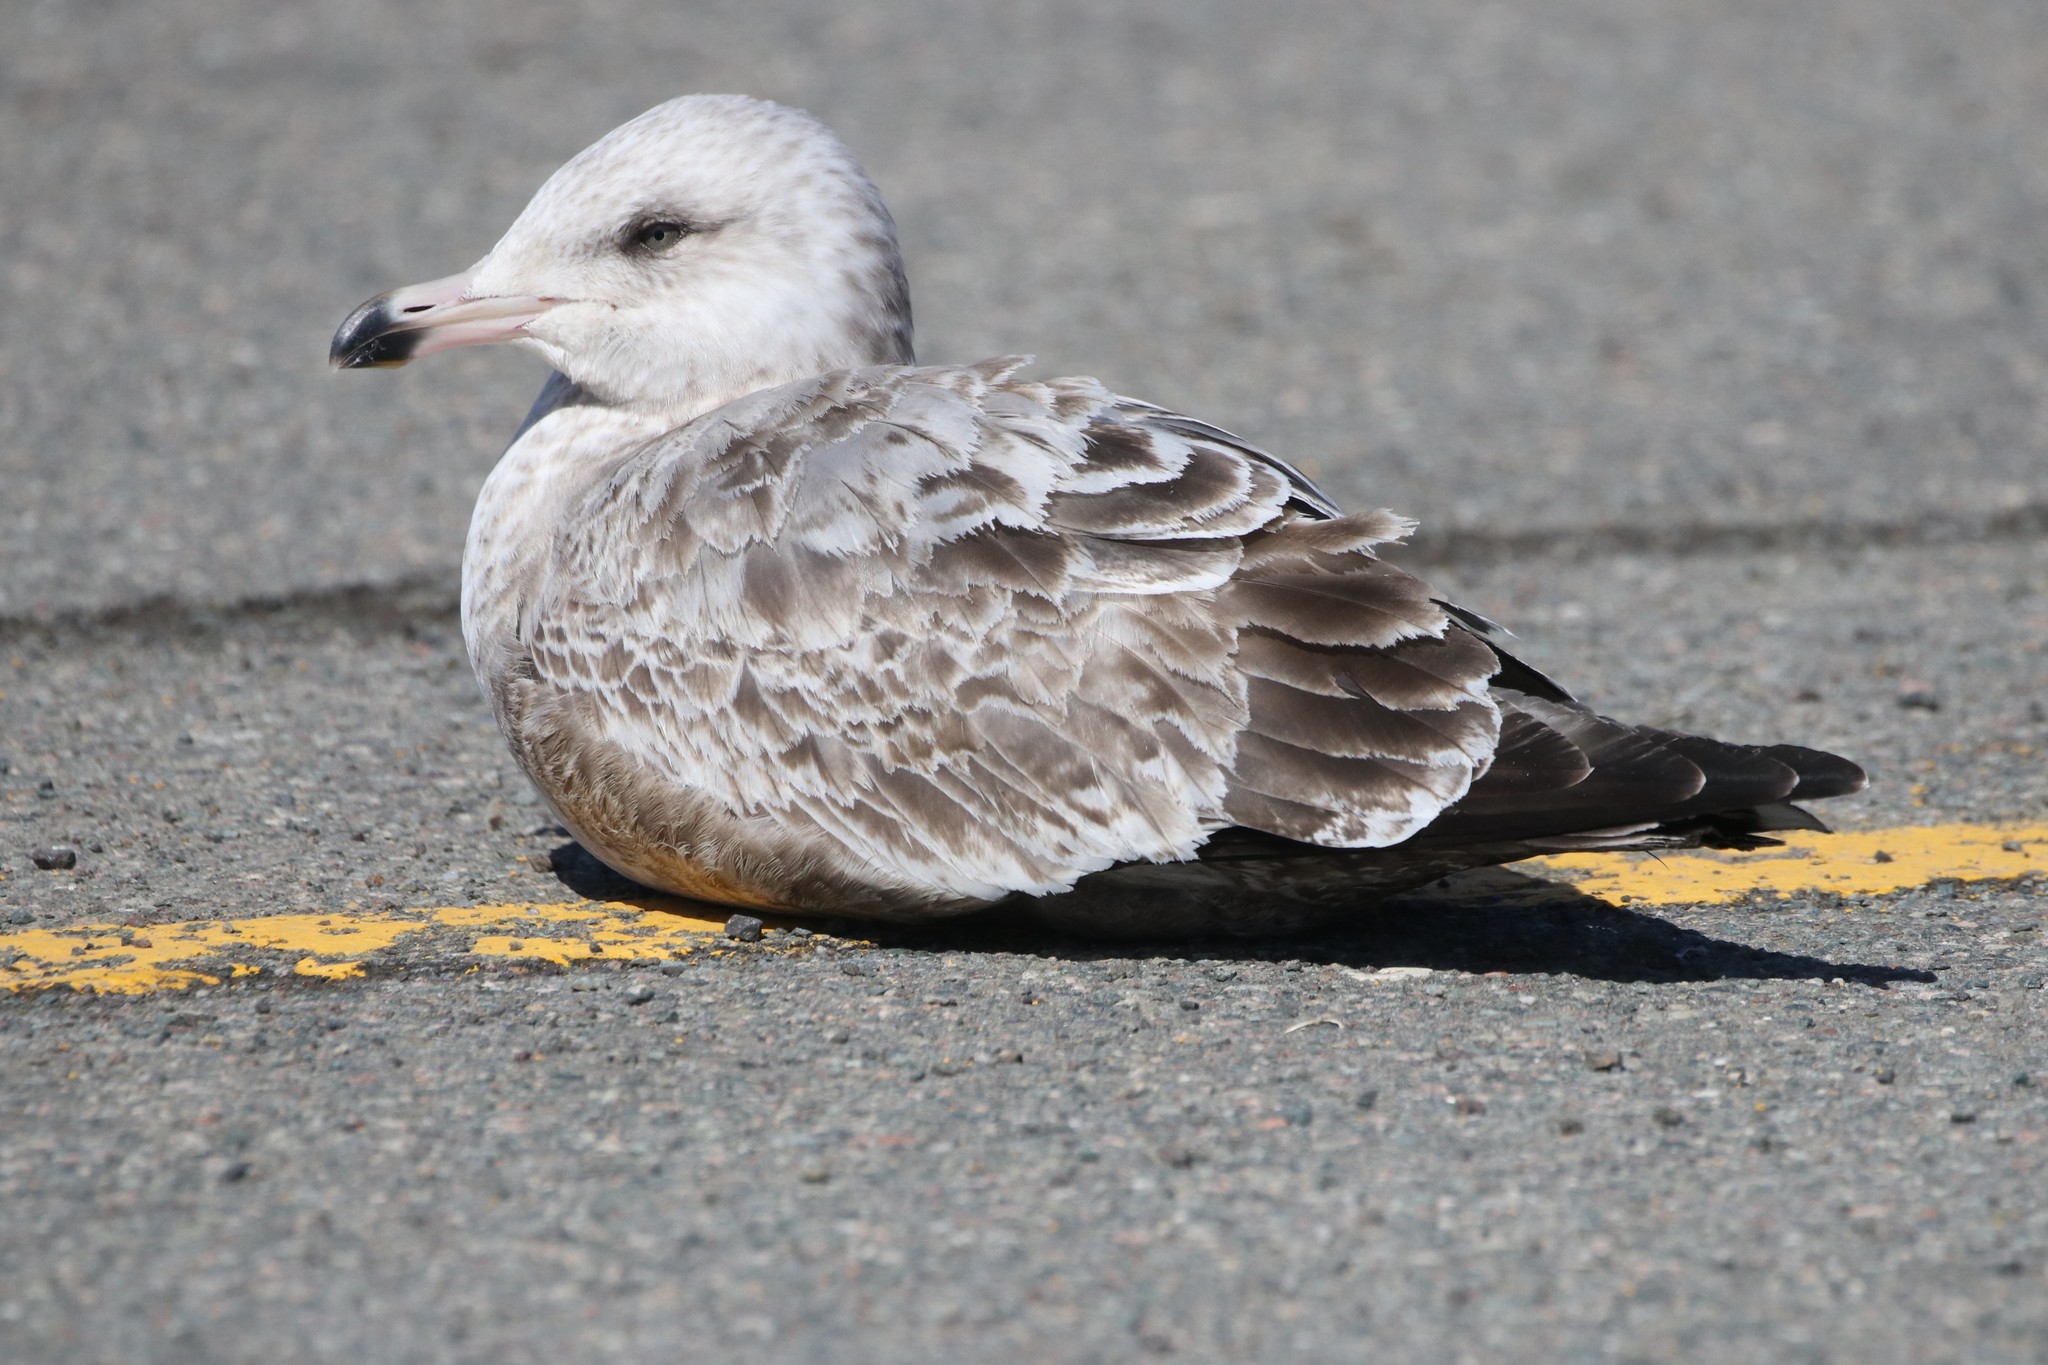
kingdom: Animalia
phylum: Chordata
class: Aves
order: Charadriiformes
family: Laridae
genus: Larus
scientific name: Larus delawarensis
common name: Ring-billed gull
